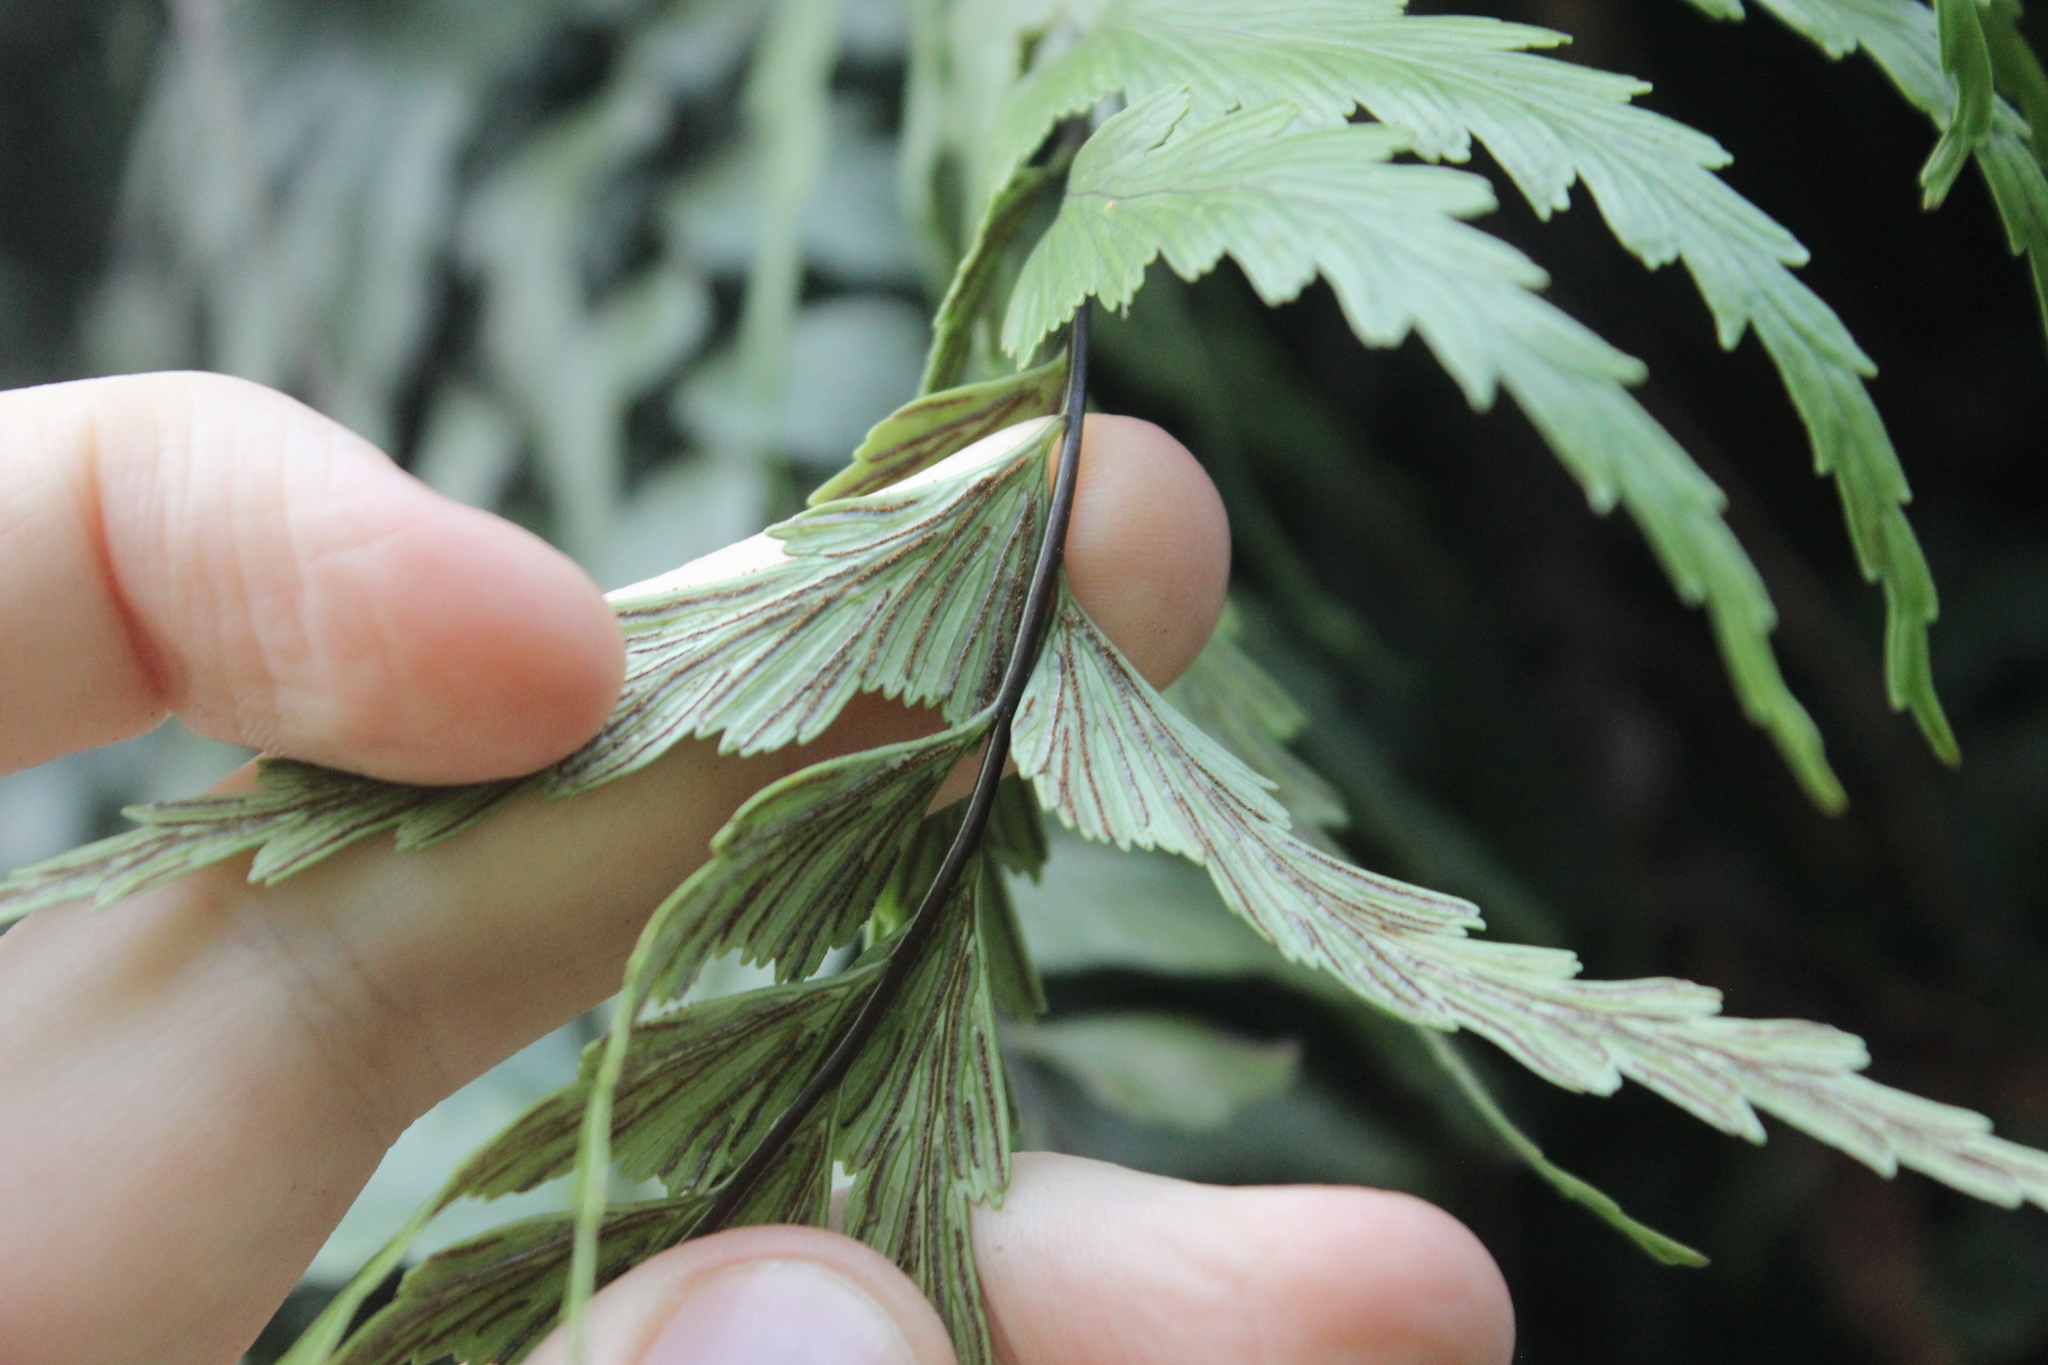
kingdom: Plantae
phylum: Tracheophyta
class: Polypodiopsida
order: Polypodiales
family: Aspleniaceae
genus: Asplenium
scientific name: Asplenium polyodon
